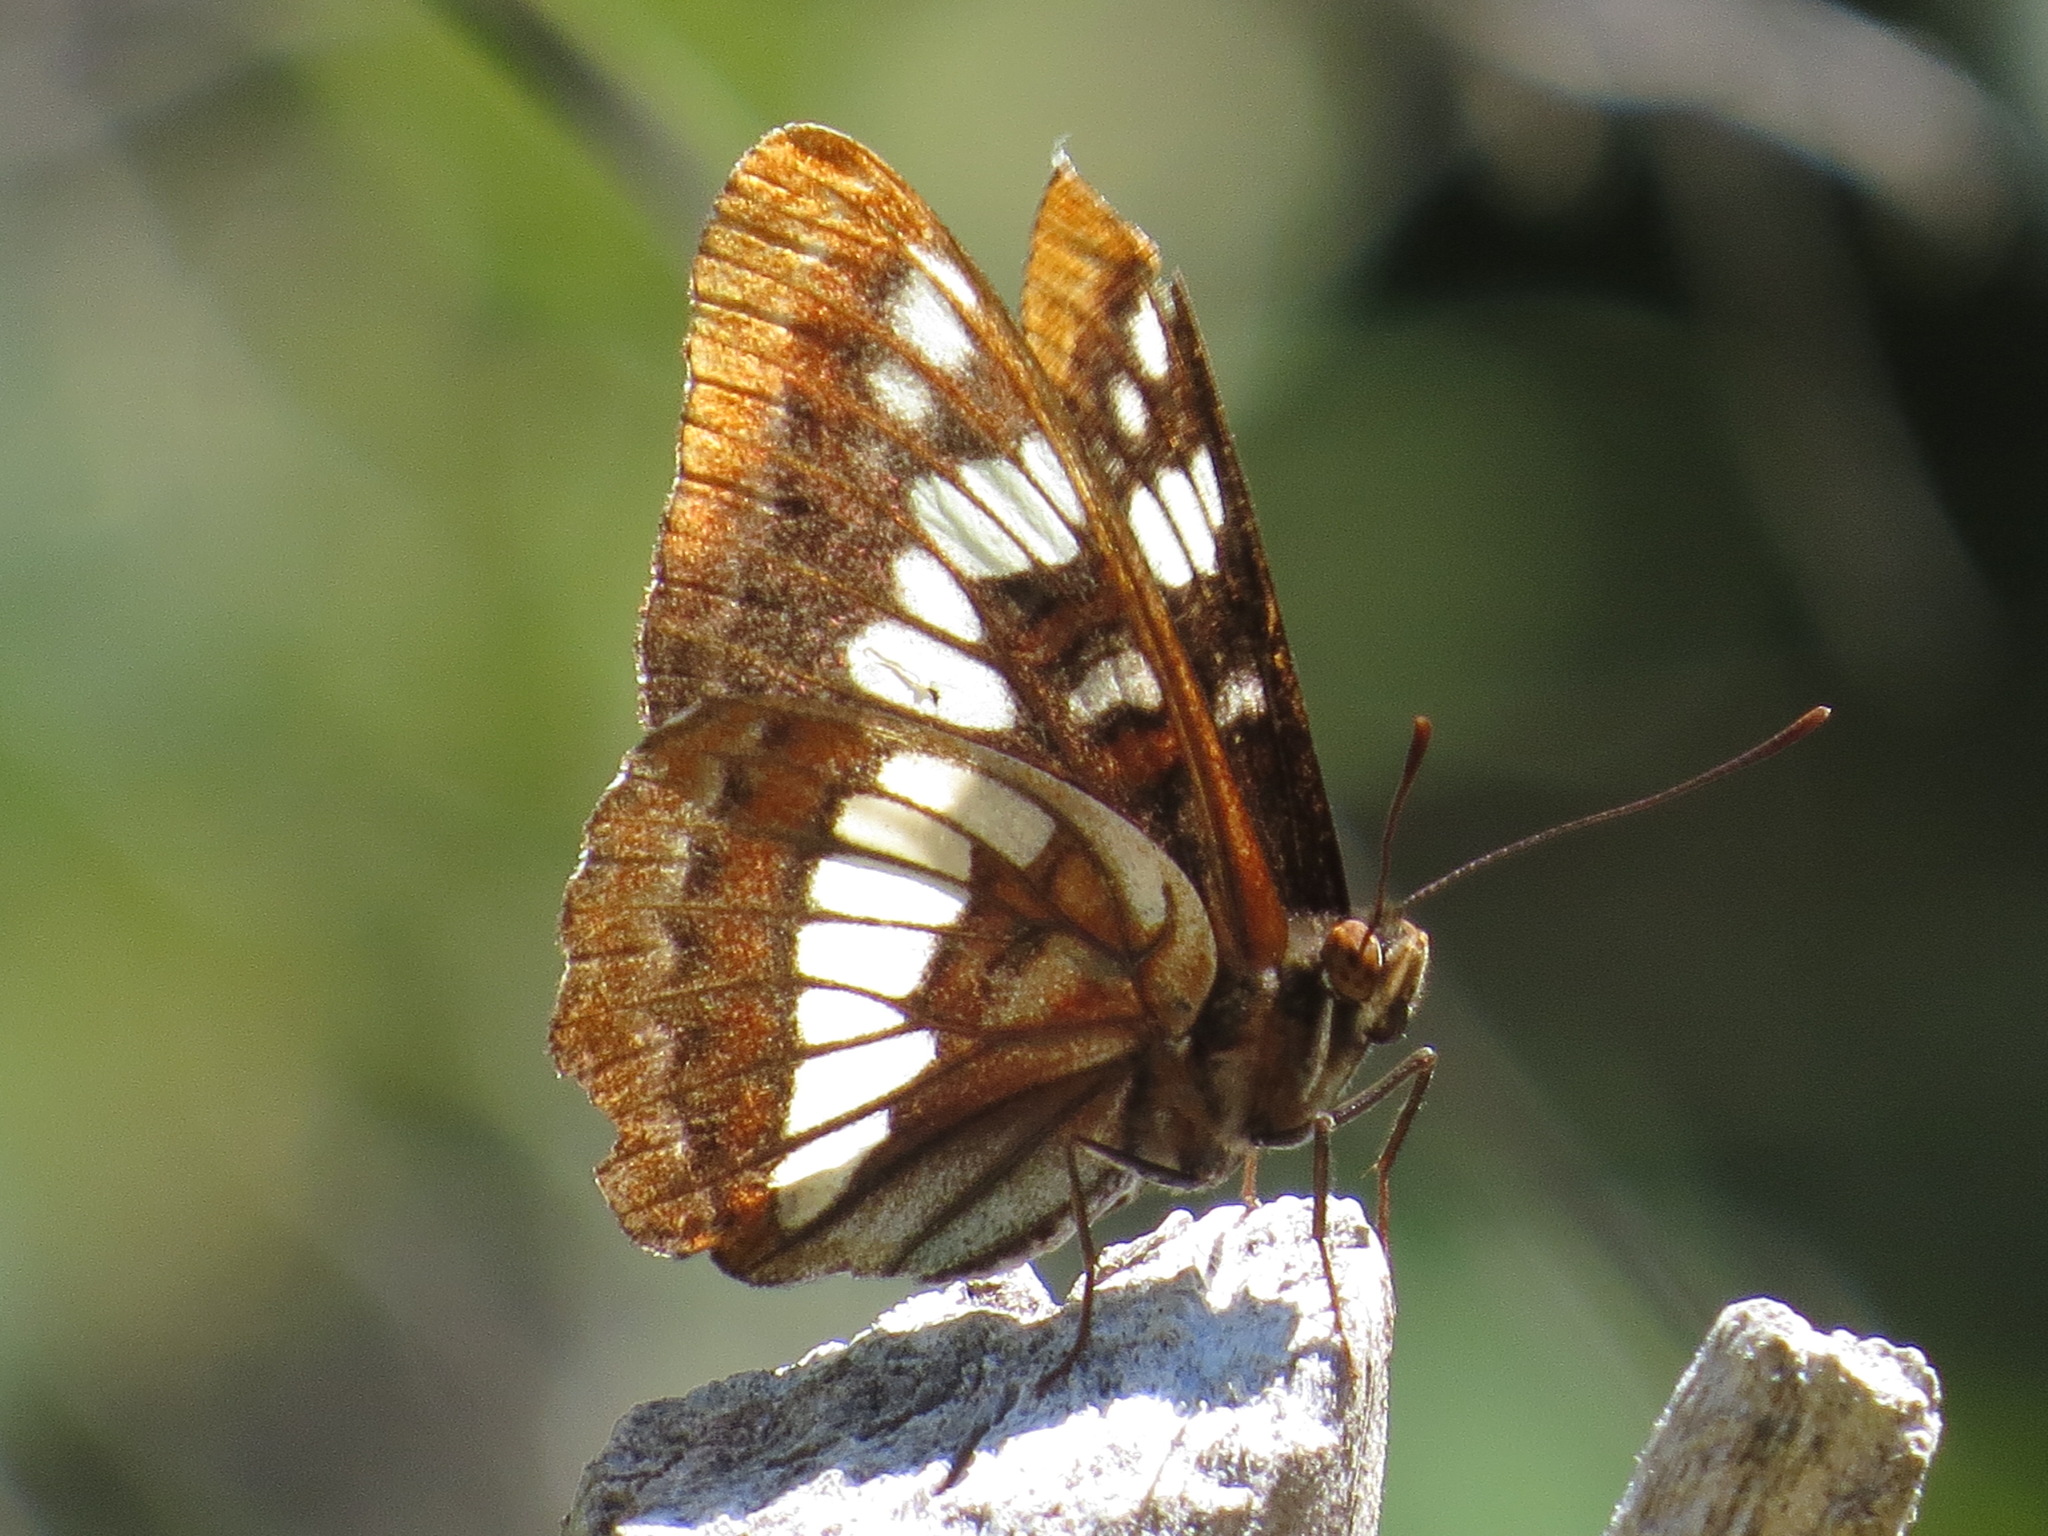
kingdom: Animalia
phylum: Arthropoda
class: Insecta
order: Lepidoptera
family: Nymphalidae
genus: Limenitis
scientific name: Limenitis lorquini
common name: Lorquin's admiral
